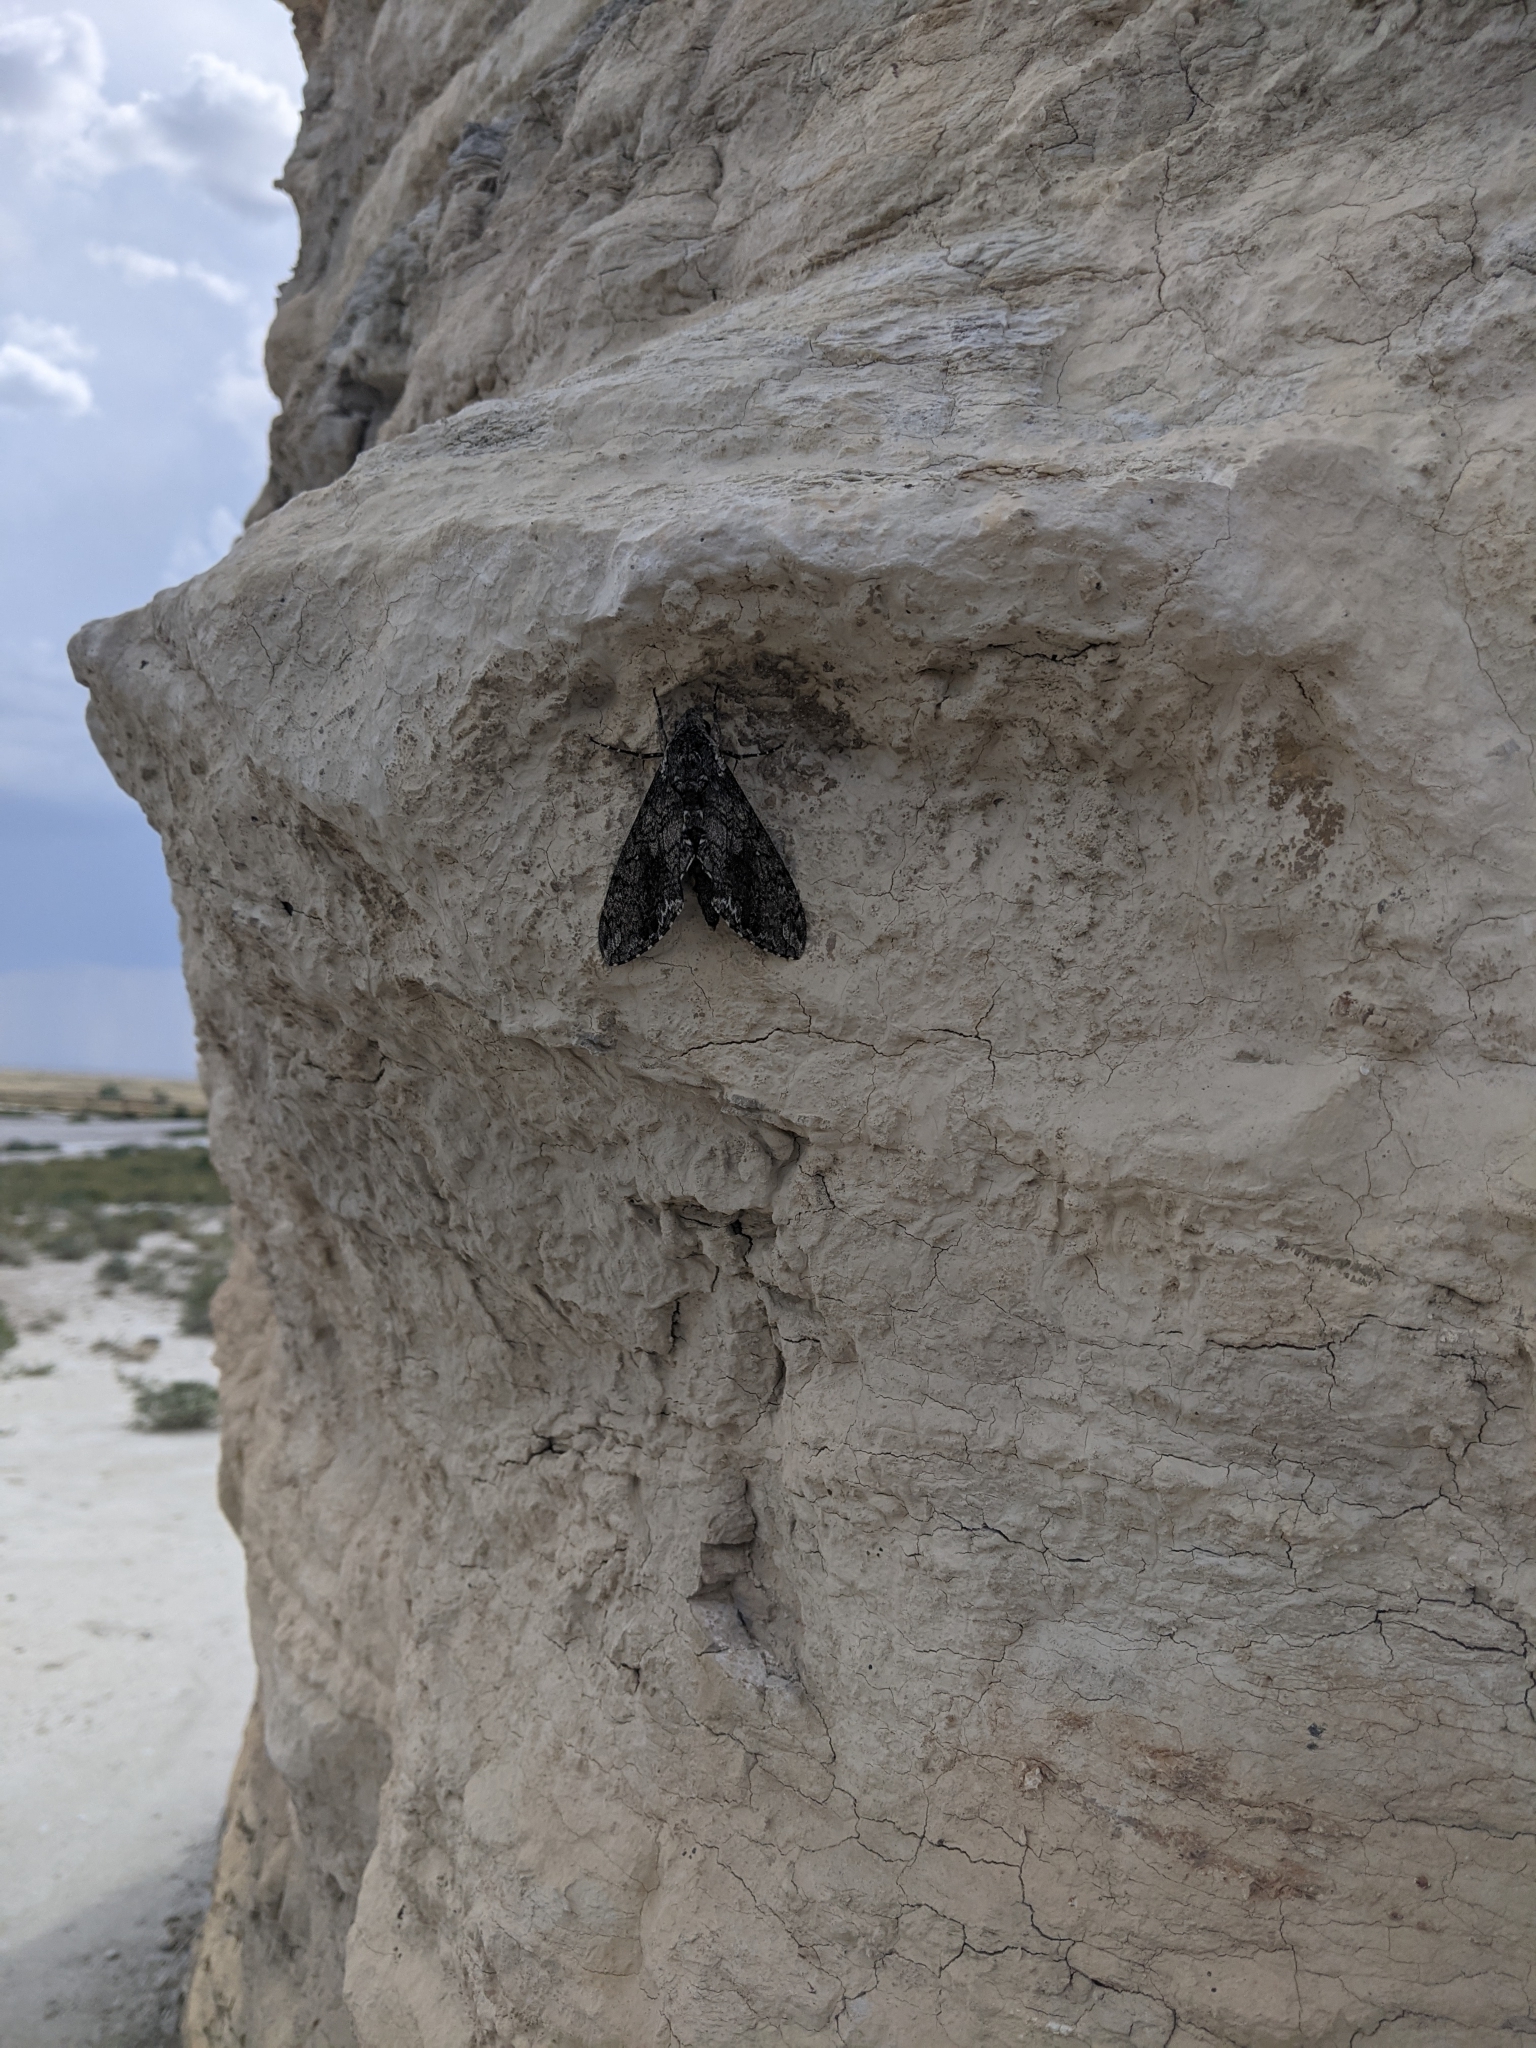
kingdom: Animalia
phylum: Arthropoda
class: Insecta
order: Lepidoptera
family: Sphingidae
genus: Manduca
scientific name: Manduca sexta
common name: Carolina sphinx
